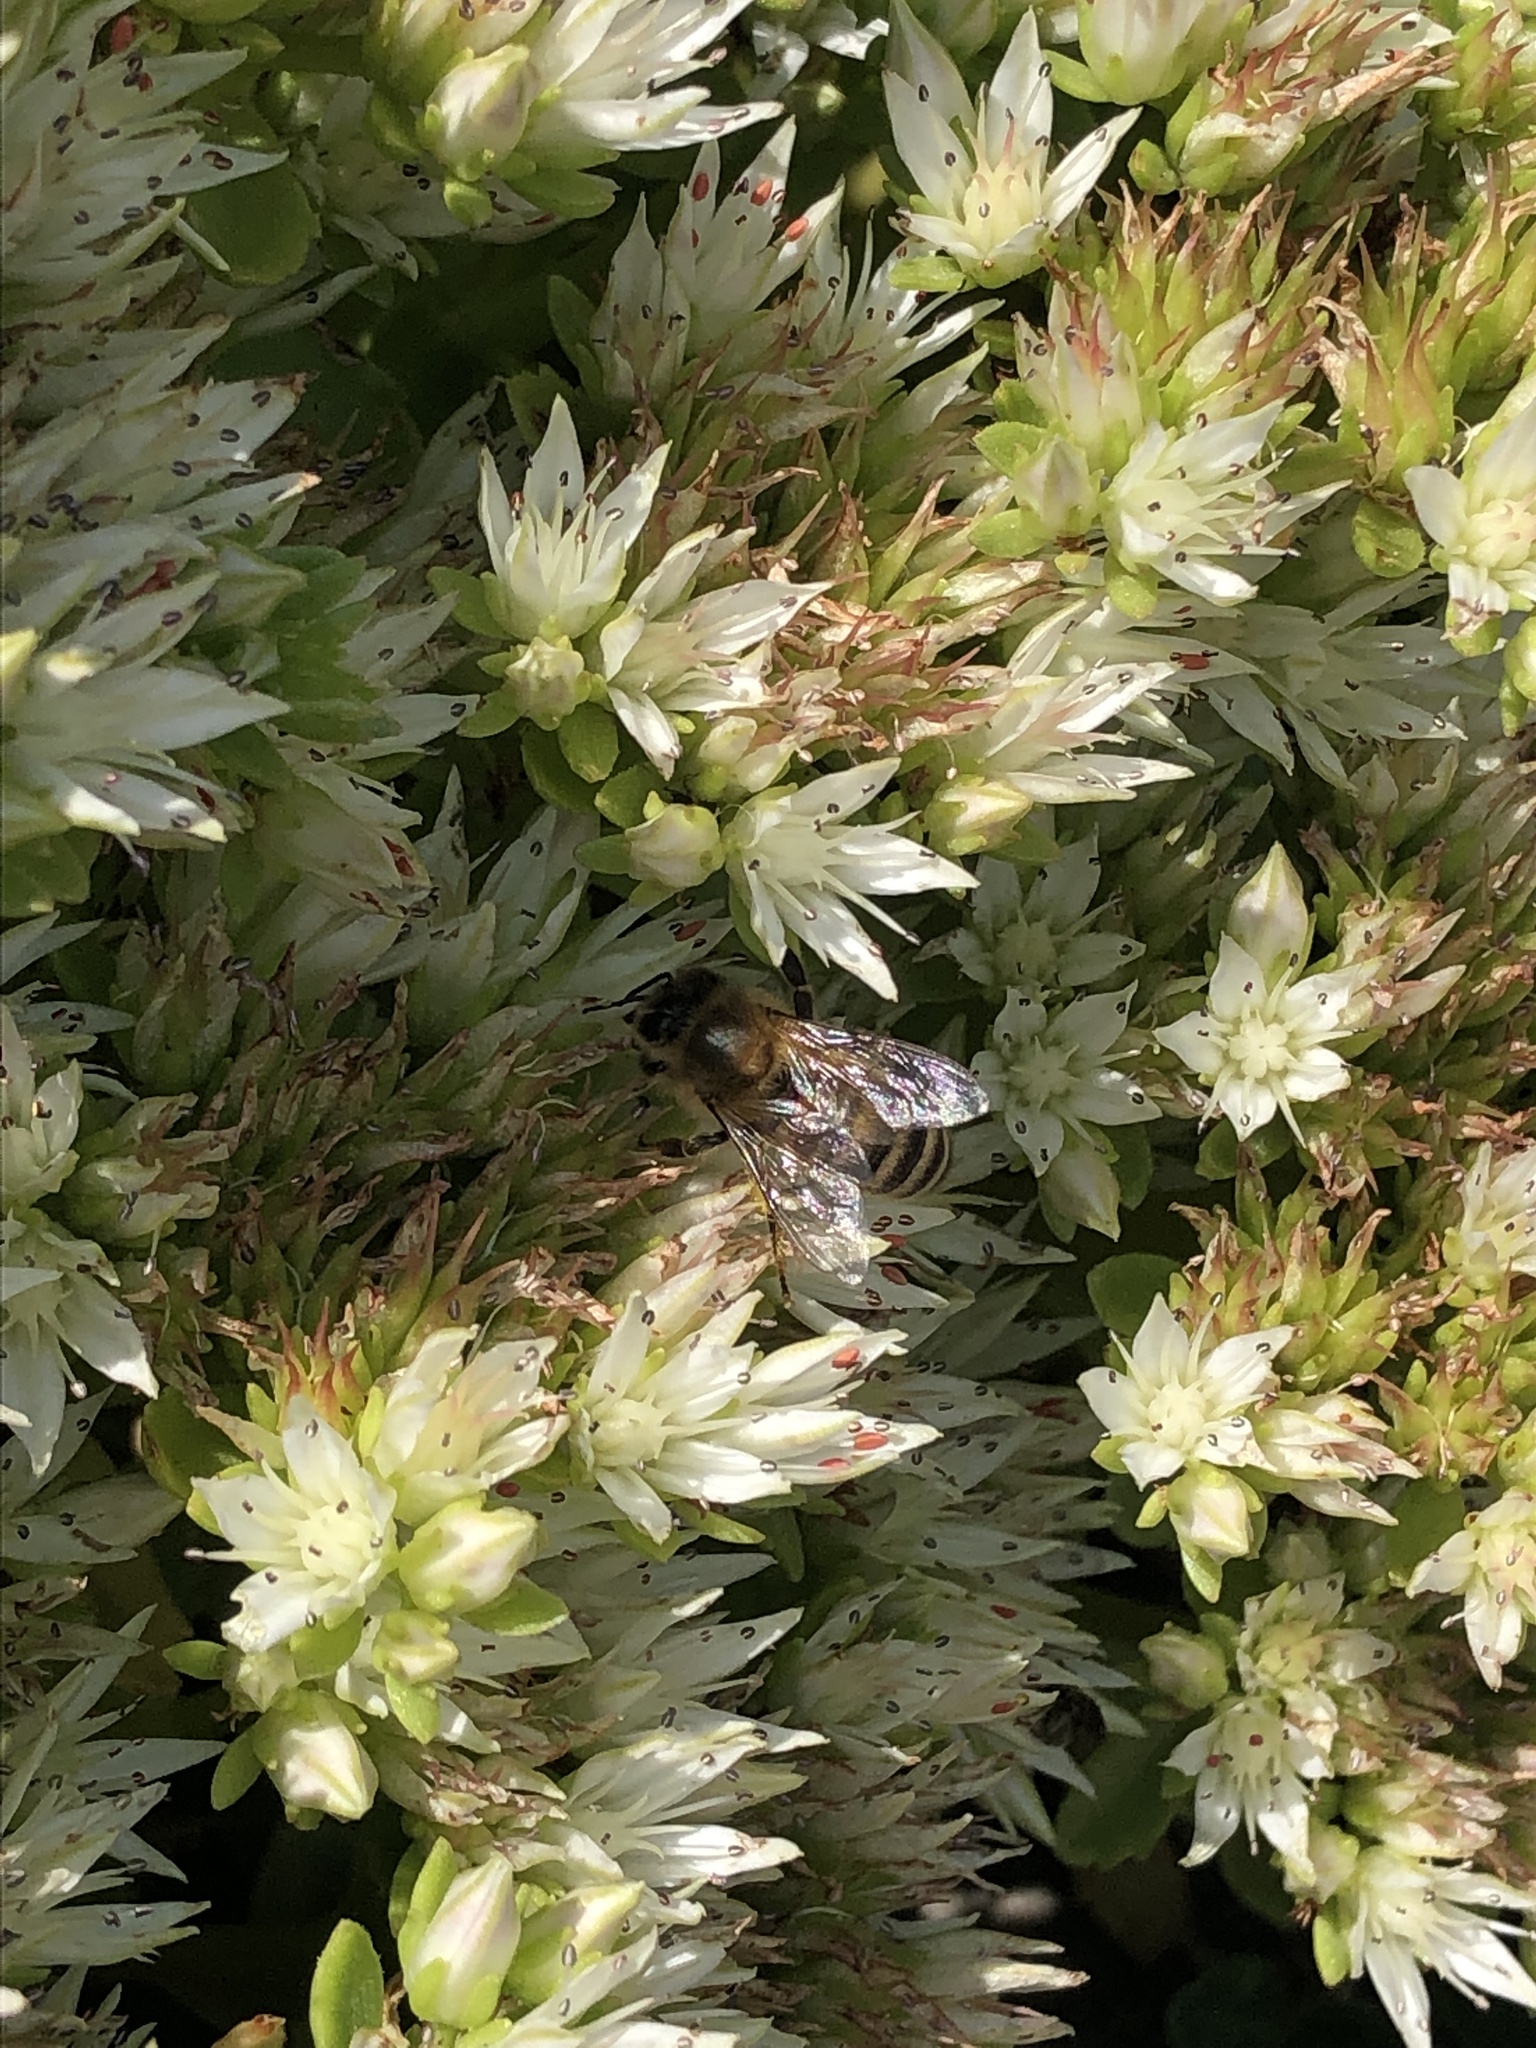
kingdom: Animalia
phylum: Arthropoda
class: Insecta
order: Hymenoptera
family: Apidae
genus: Apis
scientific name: Apis mellifera
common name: Honey bee
